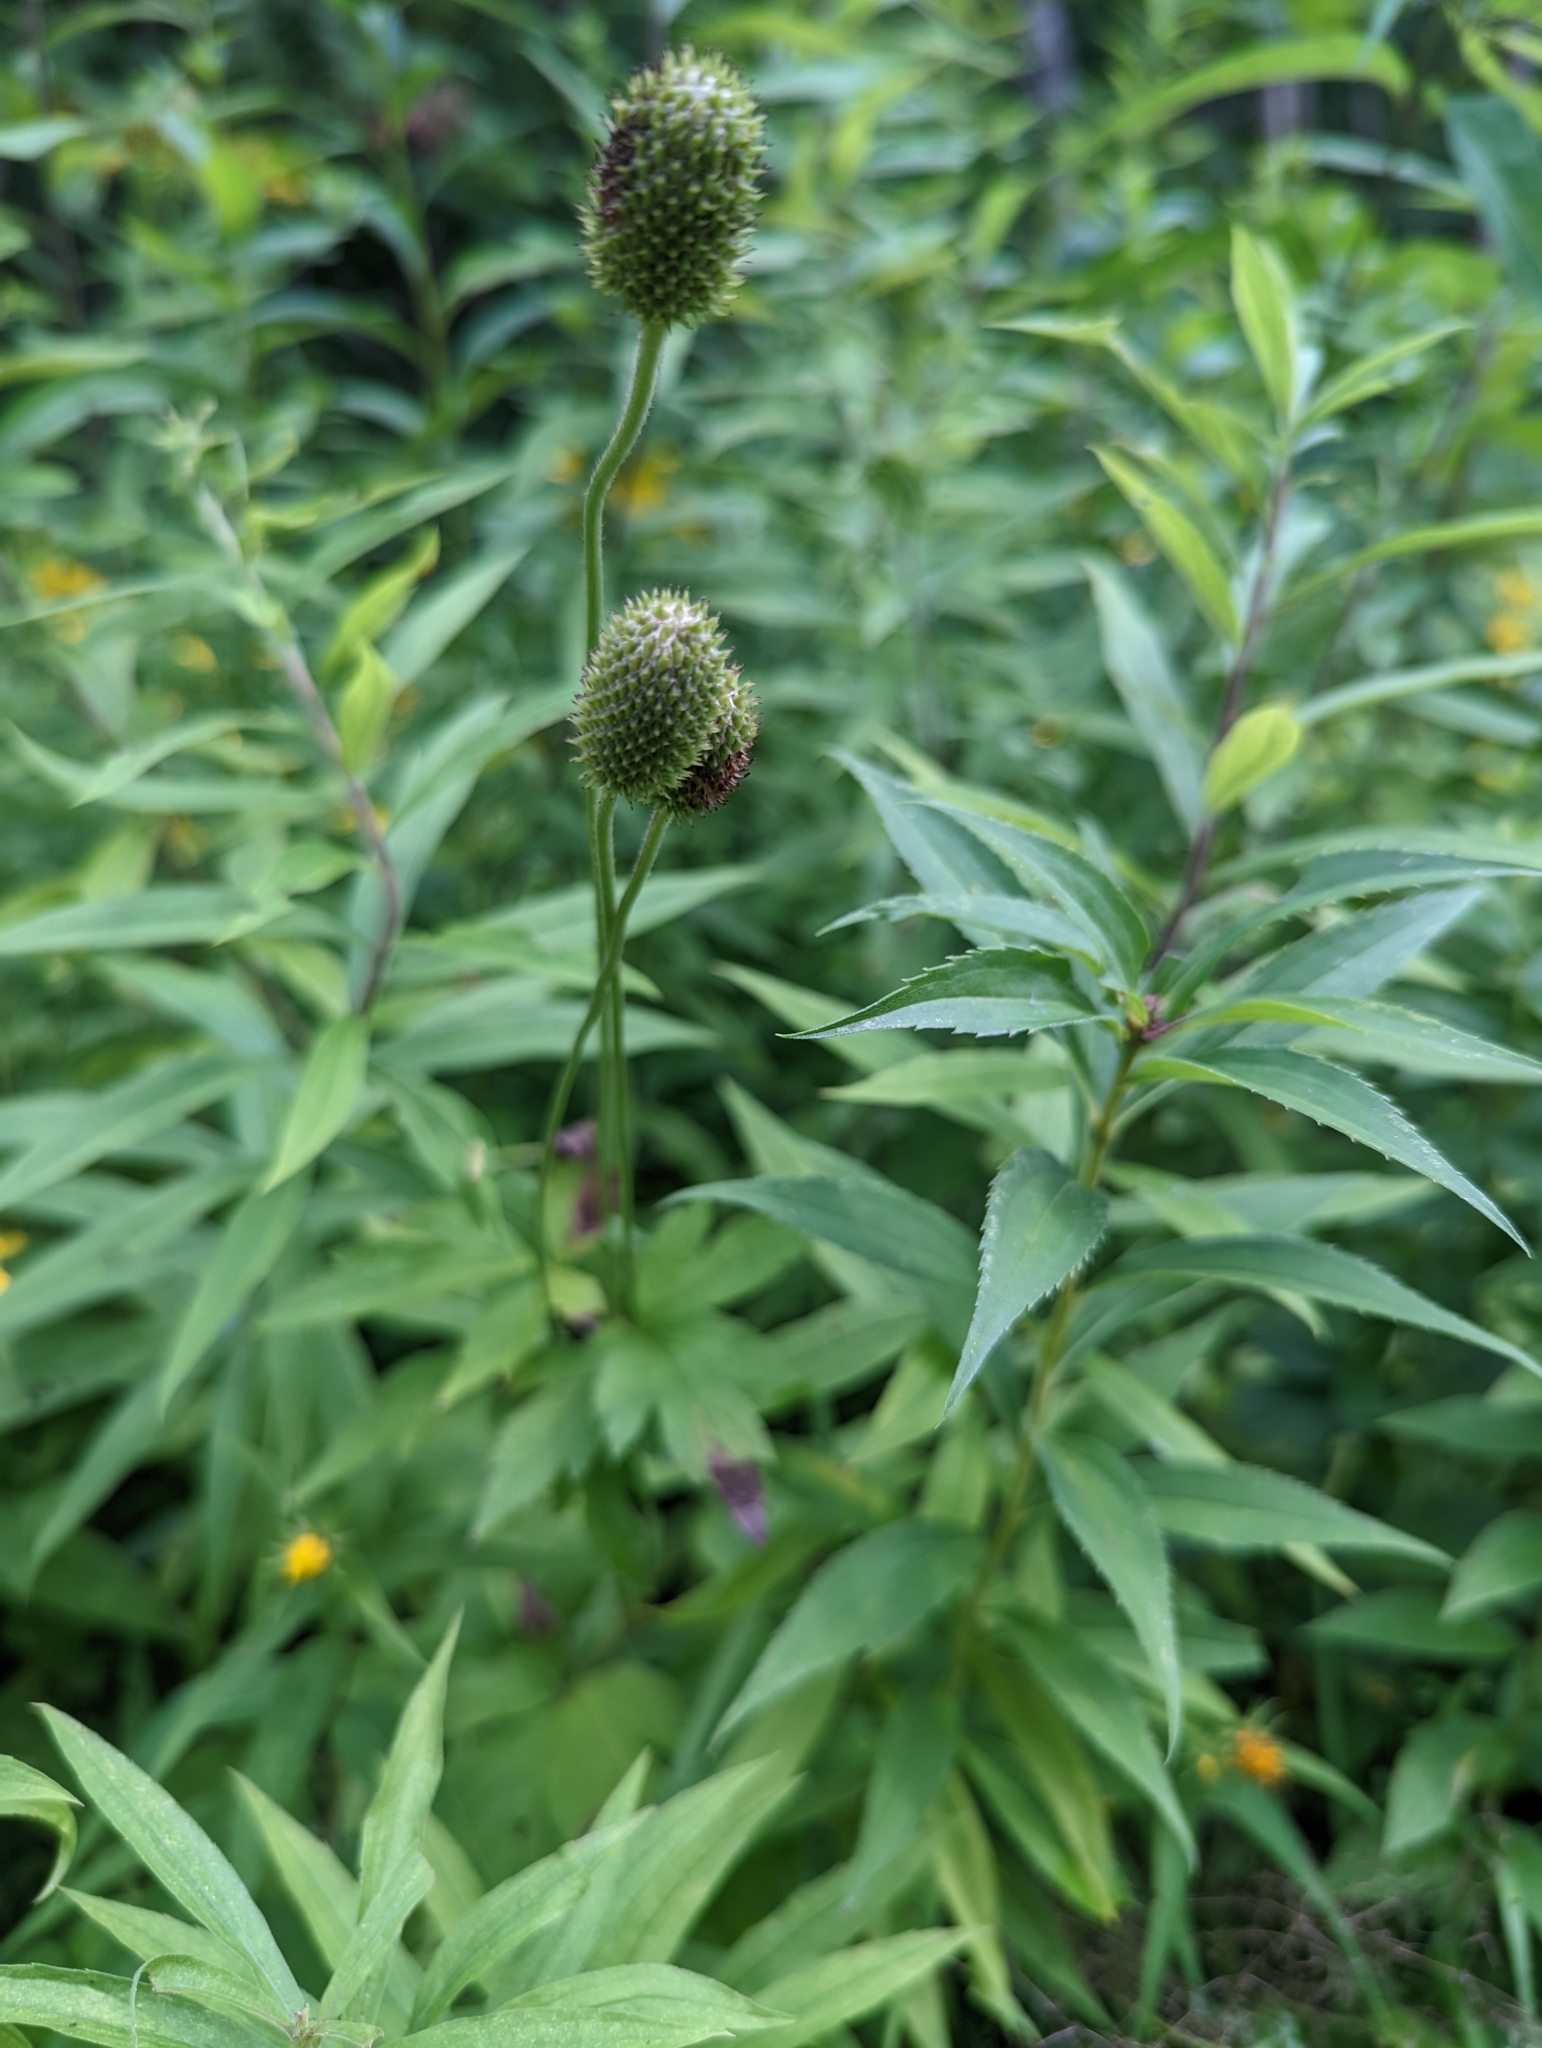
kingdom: Plantae
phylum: Tracheophyta
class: Magnoliopsida
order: Ranunculales
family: Ranunculaceae
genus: Anemone
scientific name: Anemone virginiana
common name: Tall anemone
